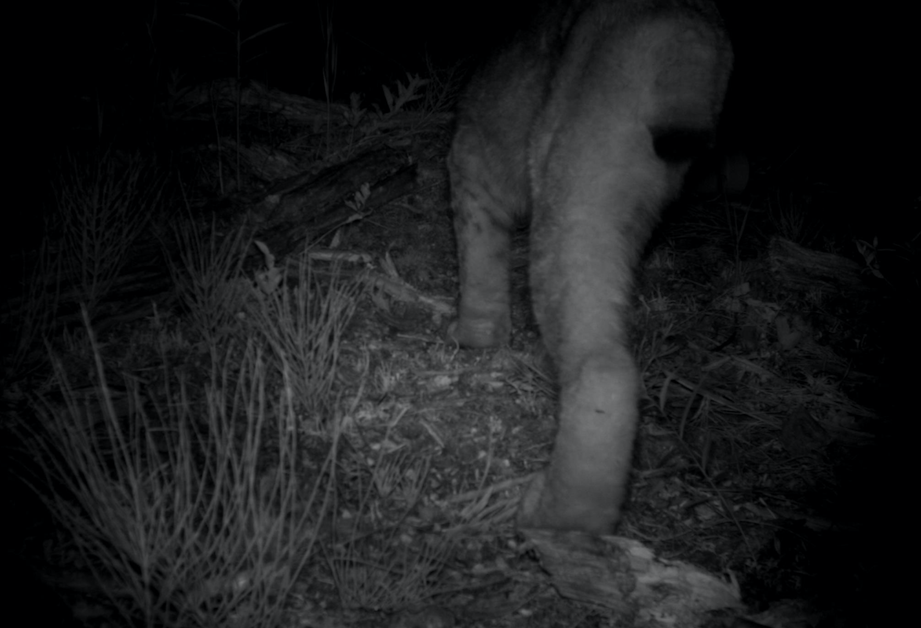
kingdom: Animalia
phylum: Chordata
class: Mammalia
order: Carnivora
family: Felidae
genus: Lynx
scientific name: Lynx canadensis
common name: Canadian lynx
